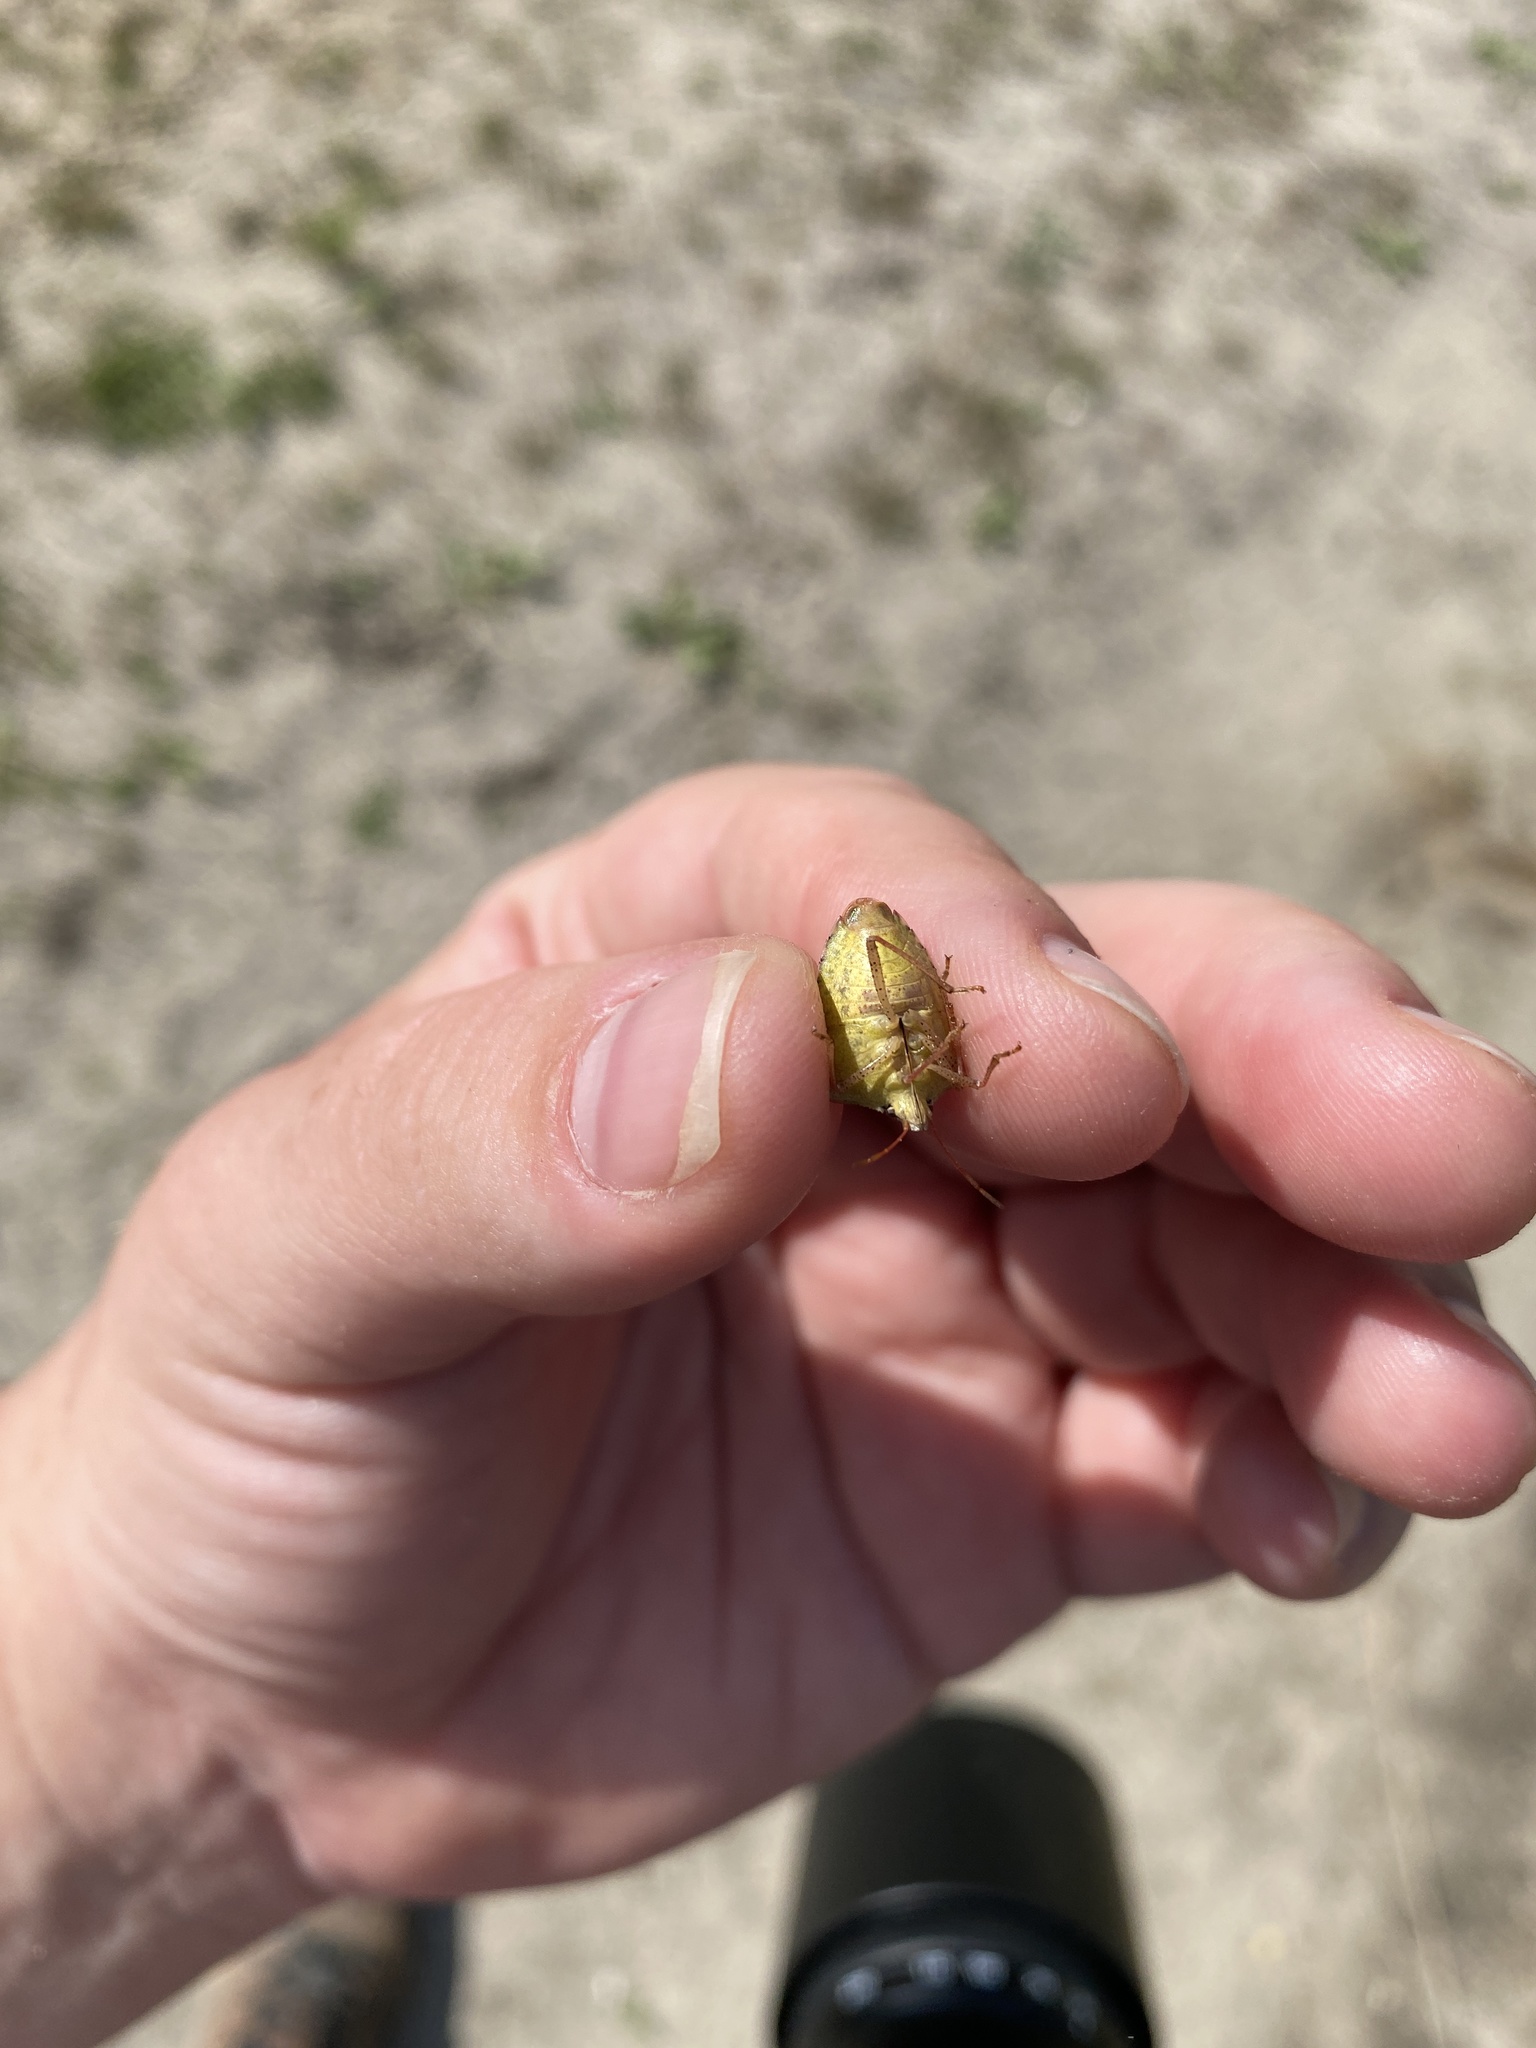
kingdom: Animalia
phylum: Arthropoda
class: Insecta
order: Hemiptera
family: Pentatomidae
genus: Euschistus
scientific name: Euschistus servus
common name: Brown stink bug
